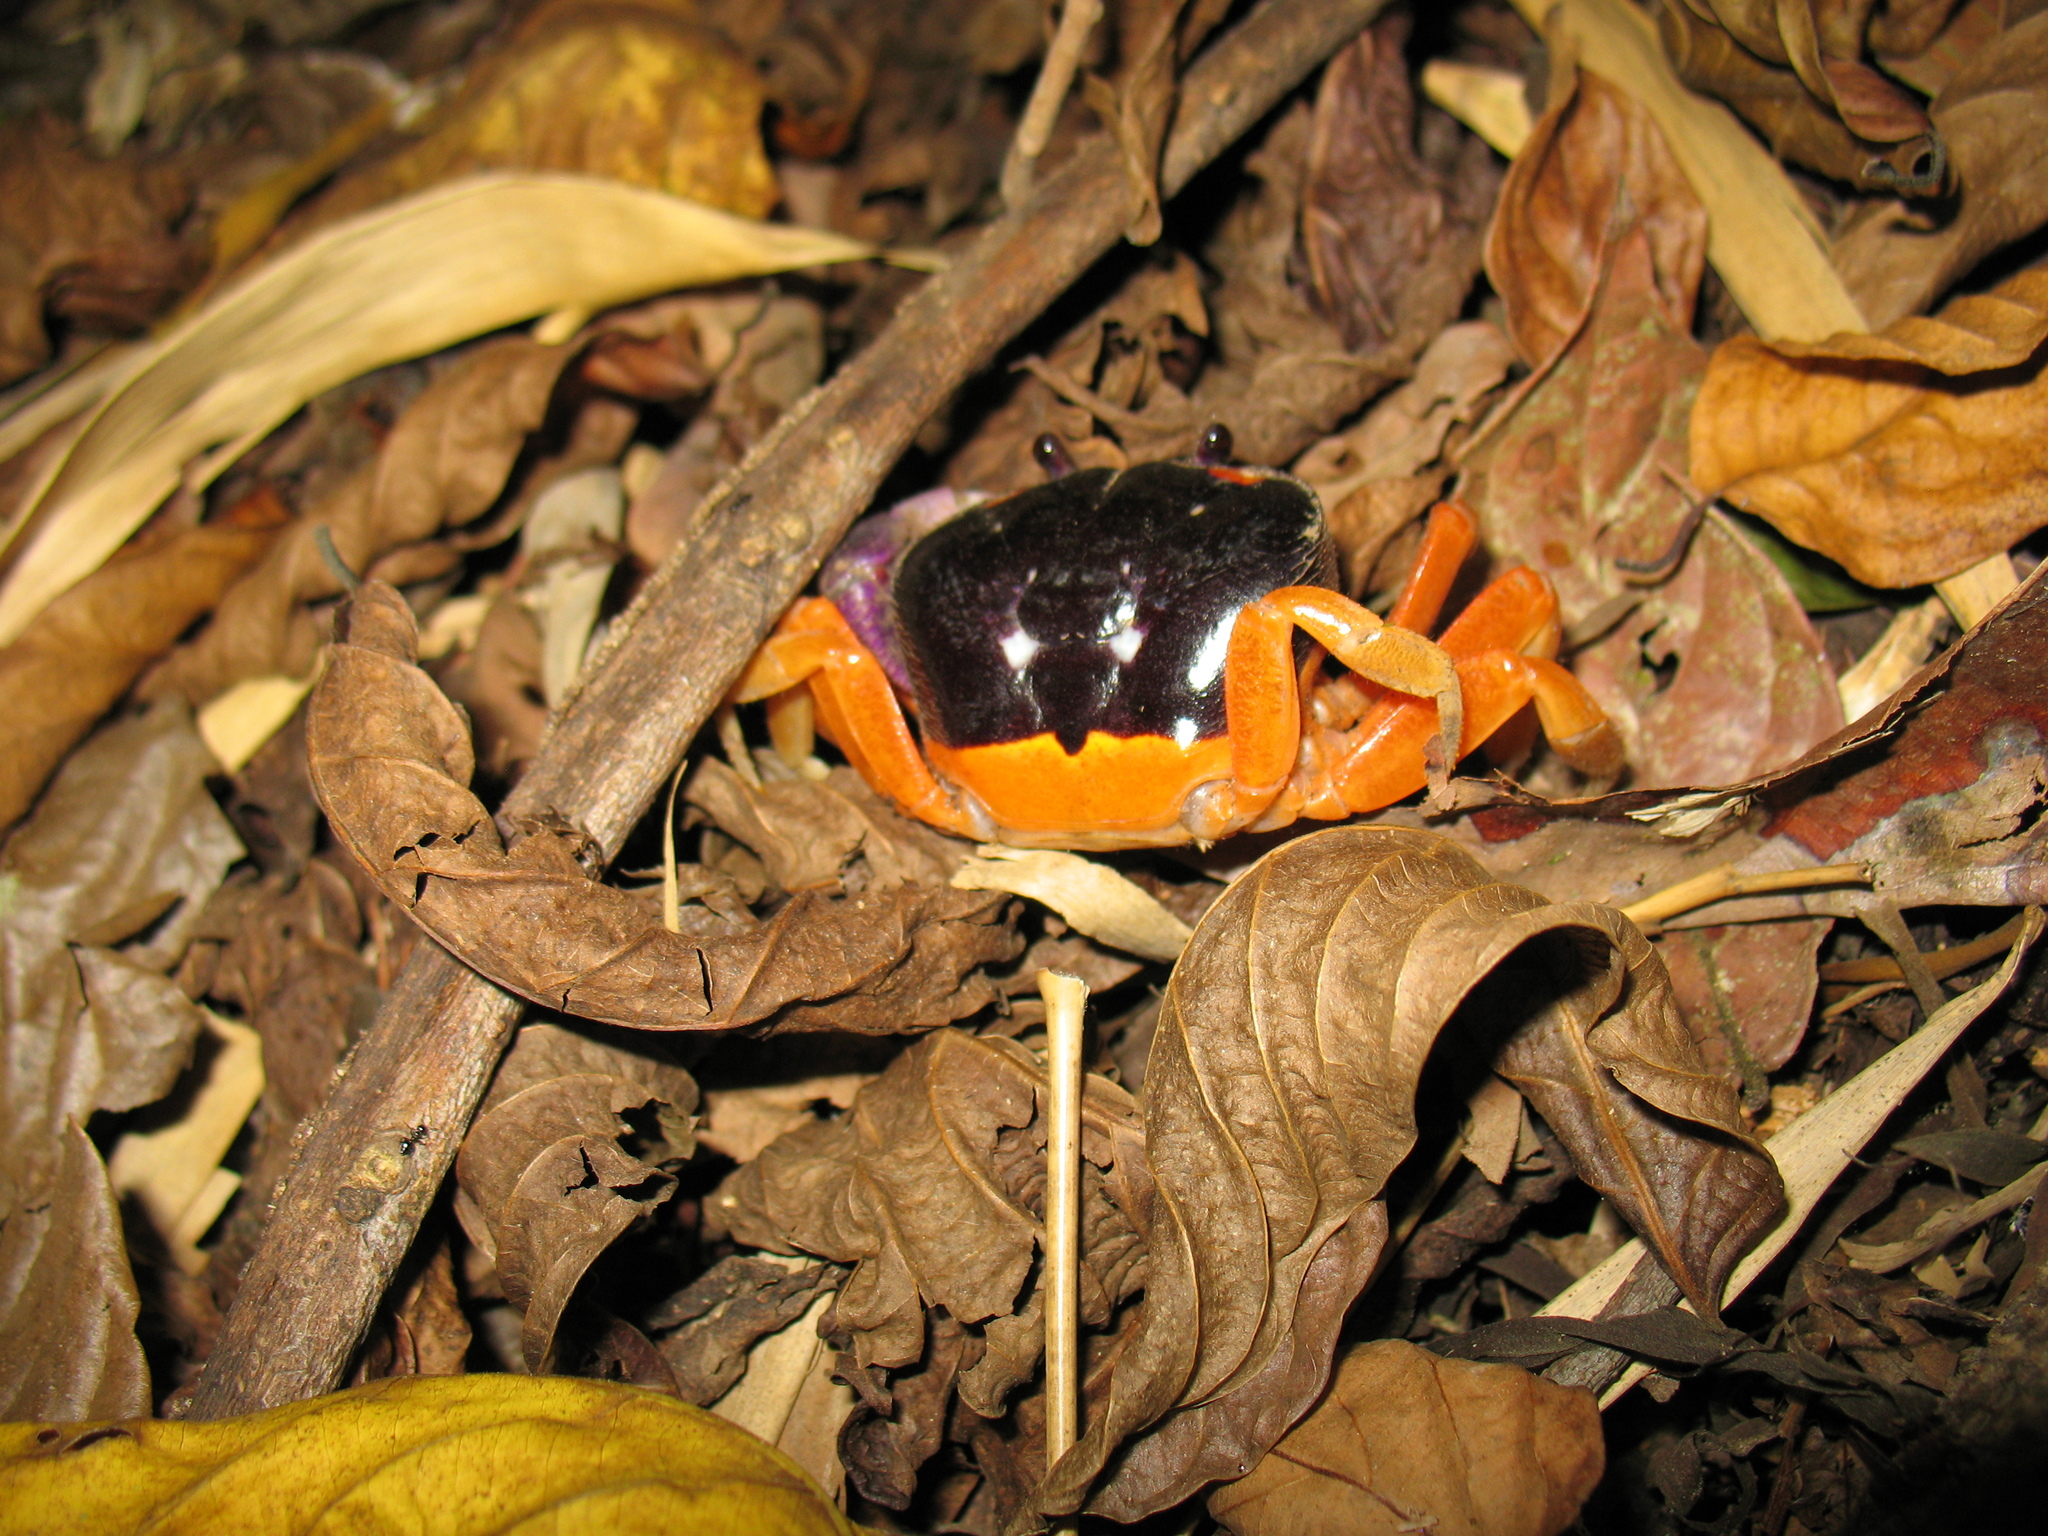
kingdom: Animalia
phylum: Arthropoda
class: Malacostraca
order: Decapoda
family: Gecarcinidae
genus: Gecarcinus
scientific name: Gecarcinus quadratus
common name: Halloween crab
